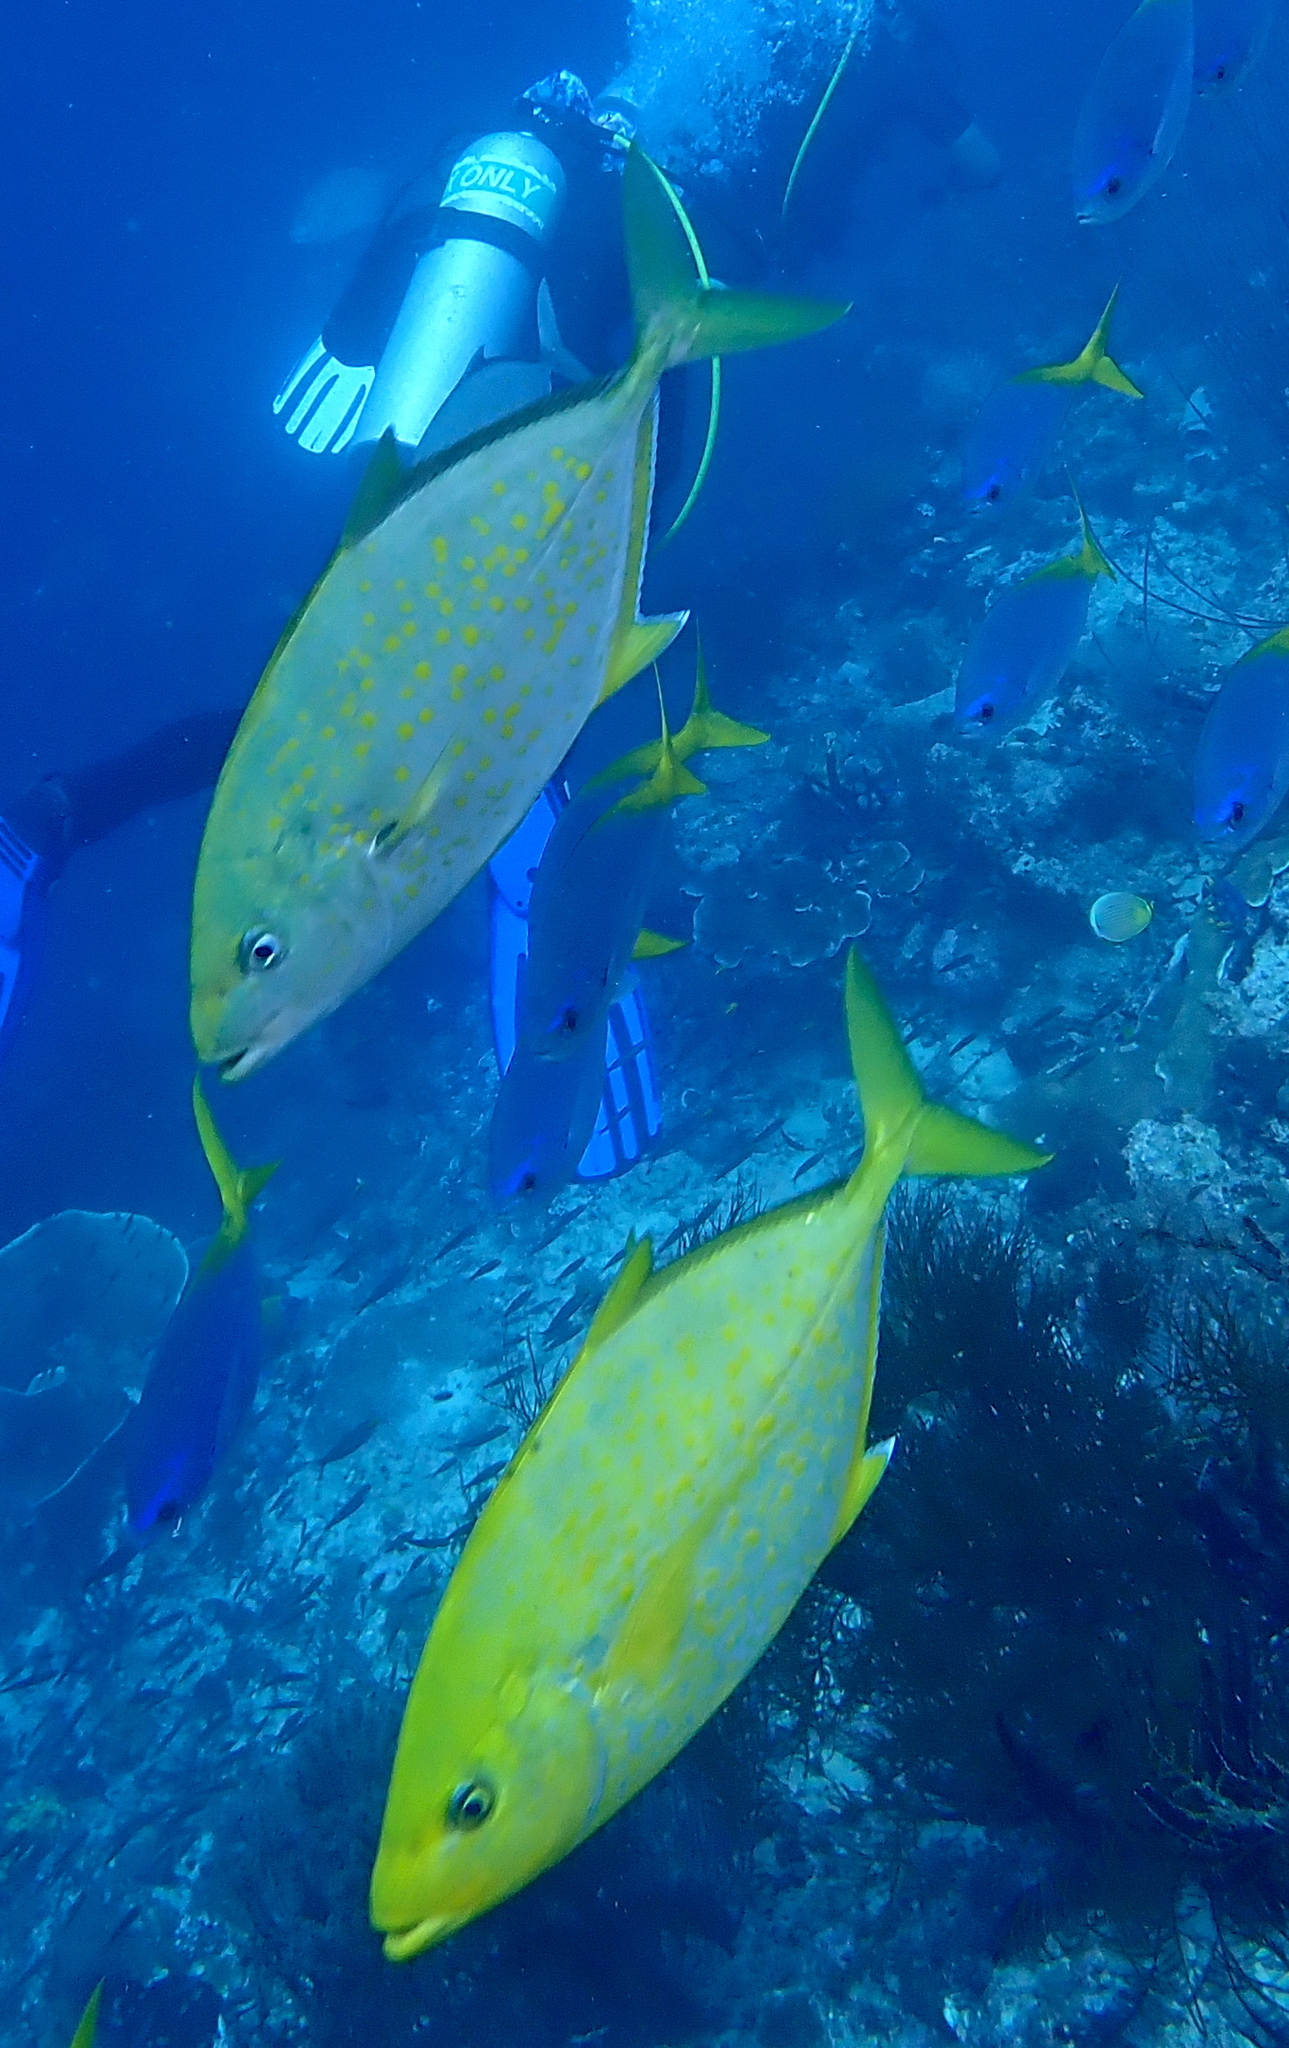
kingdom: Animalia
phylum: Chordata
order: Perciformes
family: Carangidae
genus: Flavocaranx
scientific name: Flavocaranx bajad
